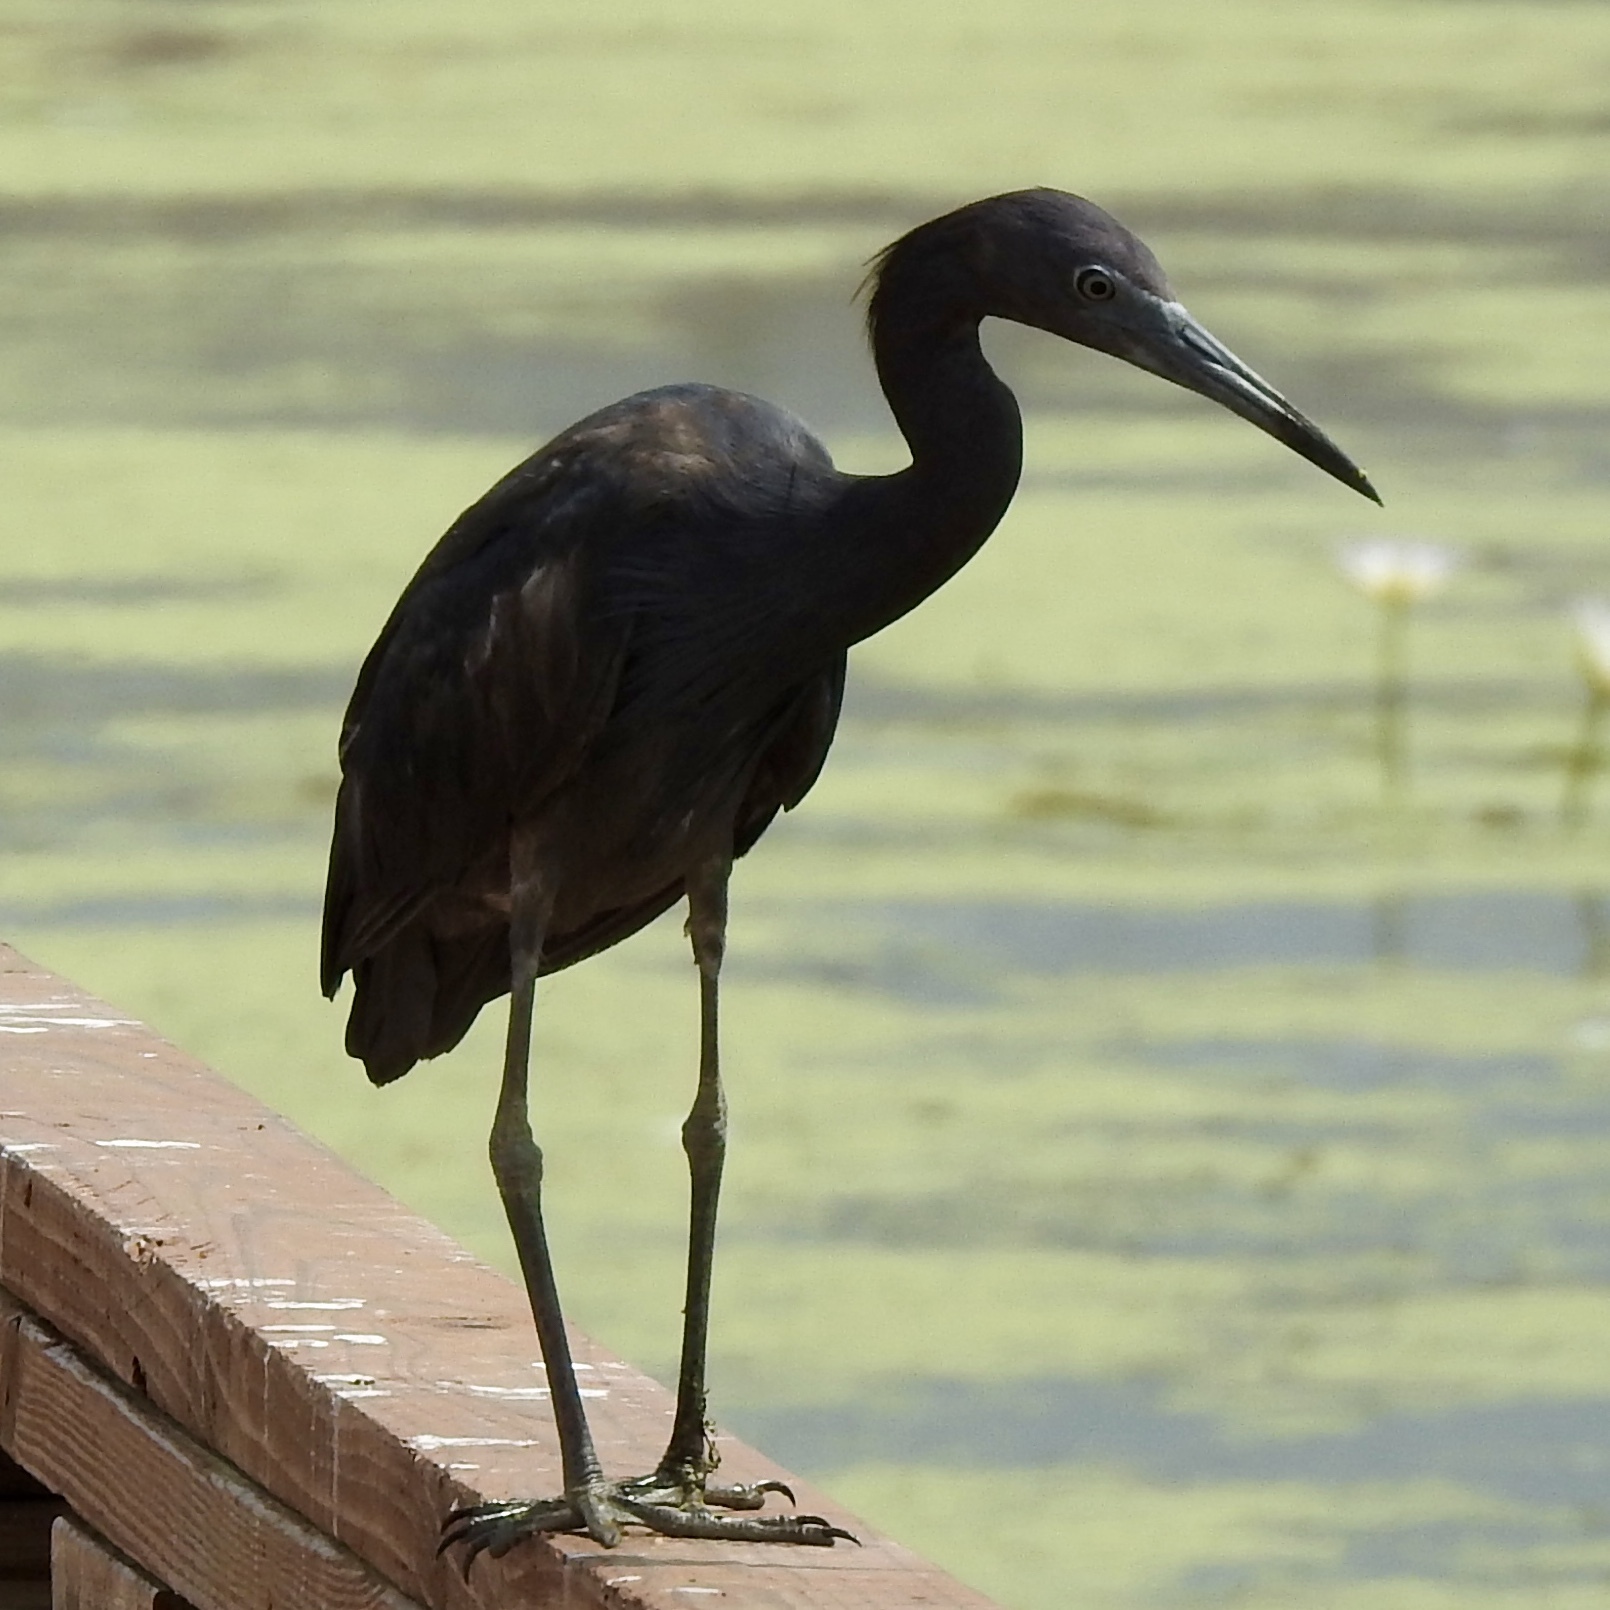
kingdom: Animalia
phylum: Chordata
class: Aves
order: Pelecaniformes
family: Ardeidae
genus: Egretta
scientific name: Egretta caerulea
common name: Little blue heron
